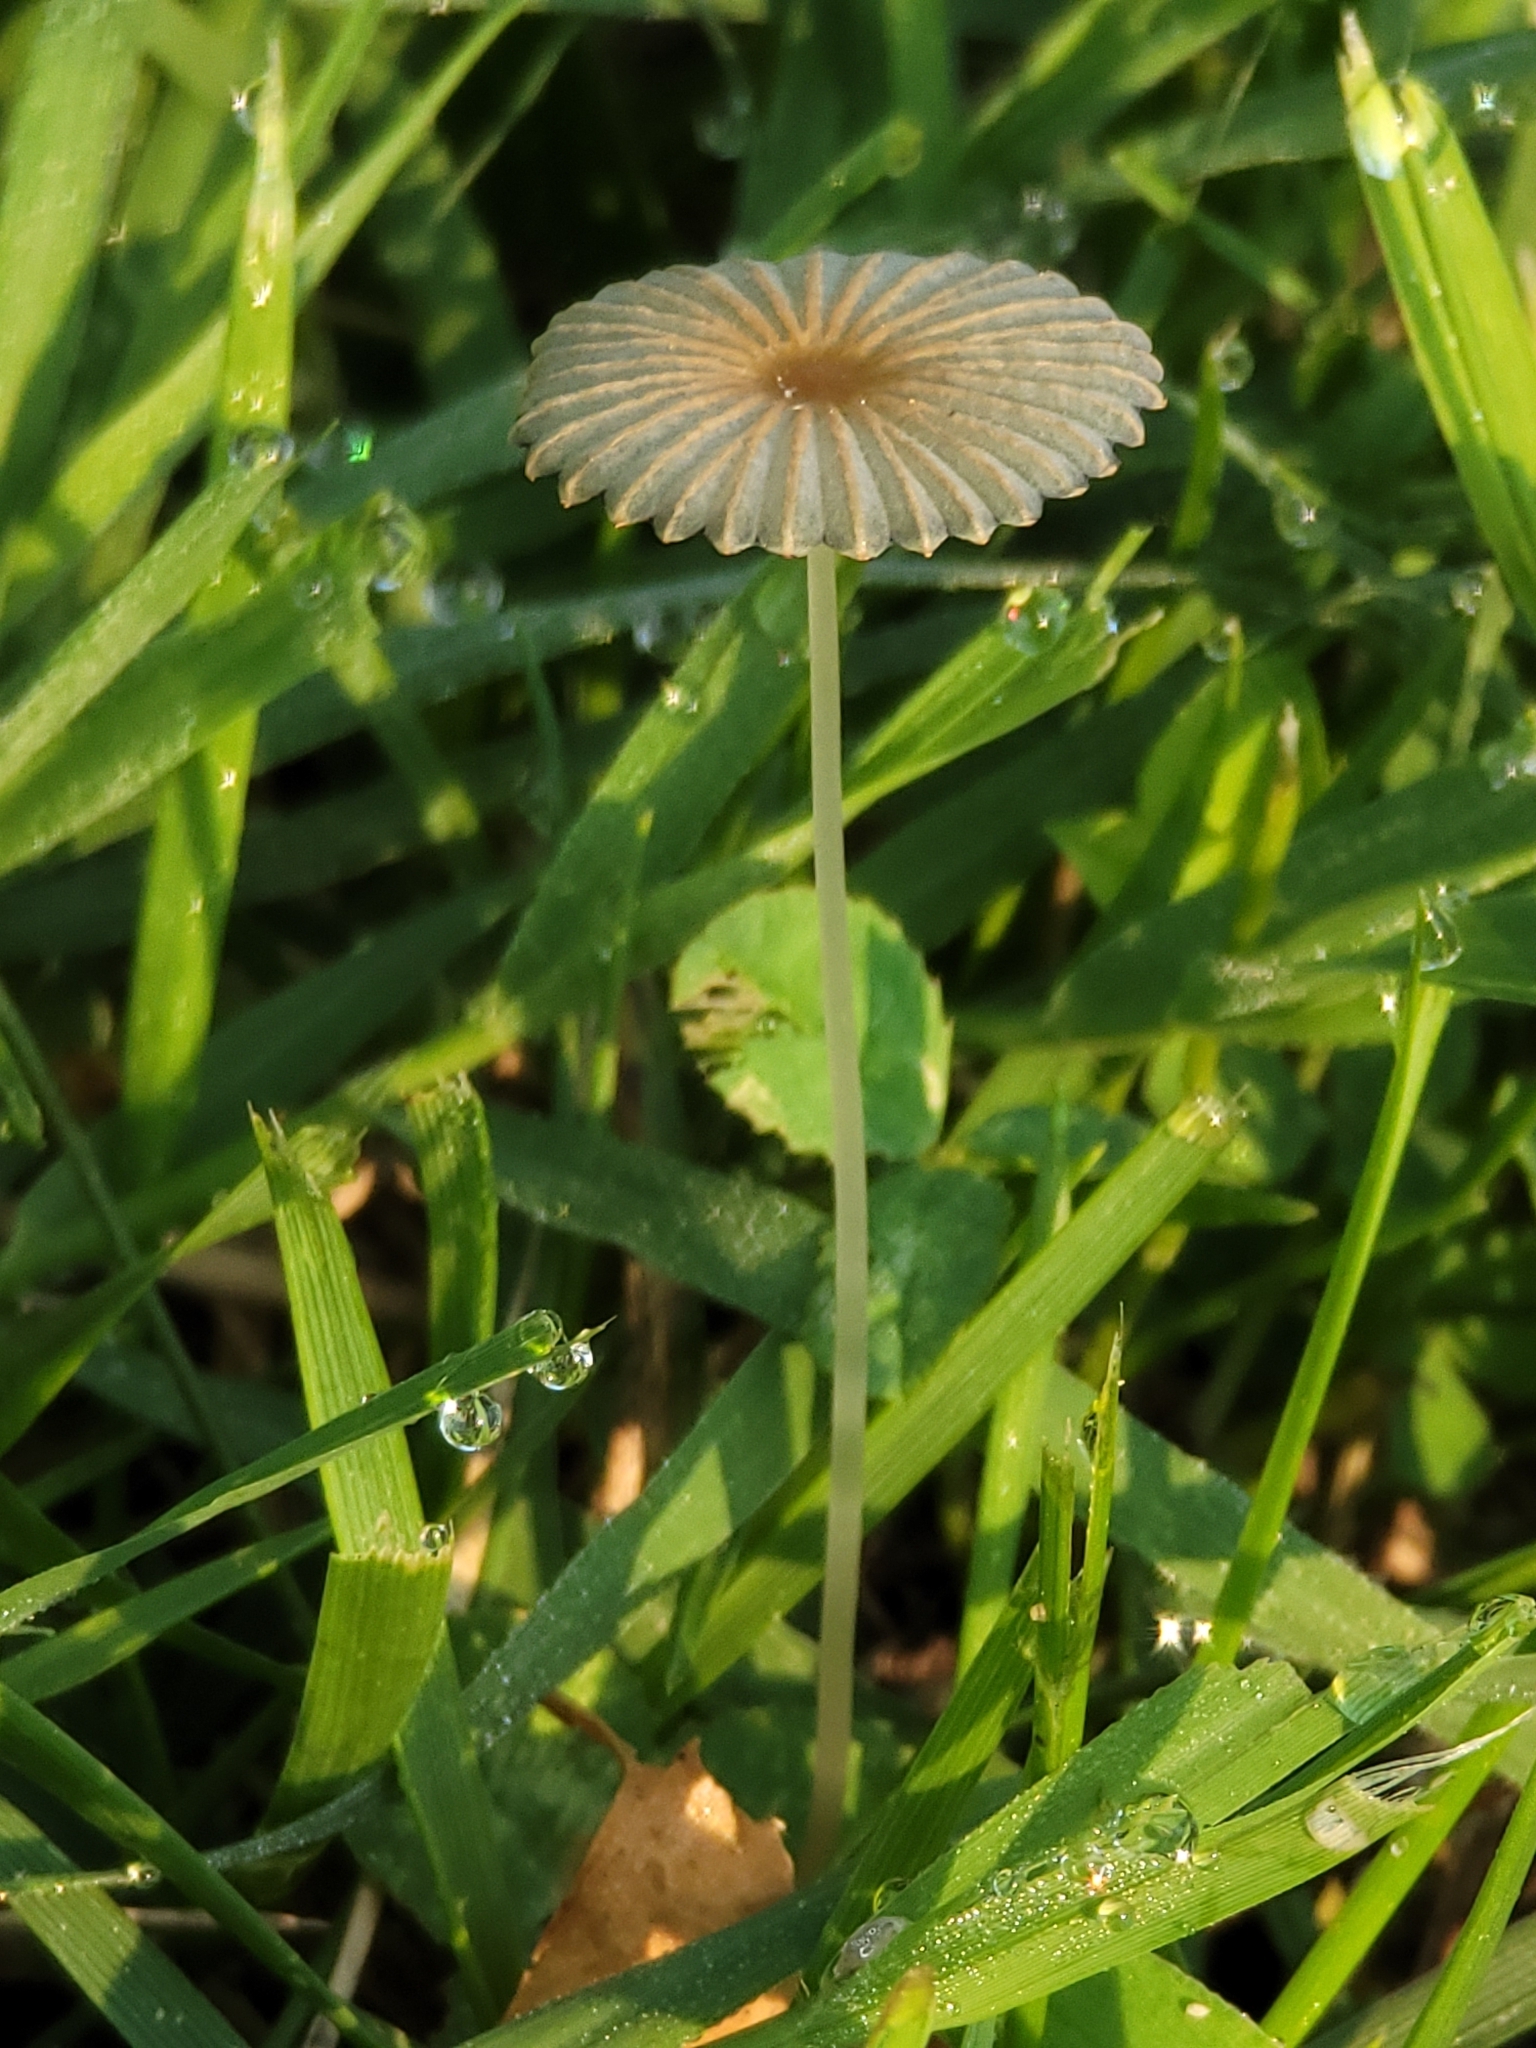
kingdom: Fungi
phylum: Basidiomycota
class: Agaricomycetes
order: Agaricales
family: Psathyrellaceae
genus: Parasola
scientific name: Parasola plicatilis
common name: Pleated inkcap
